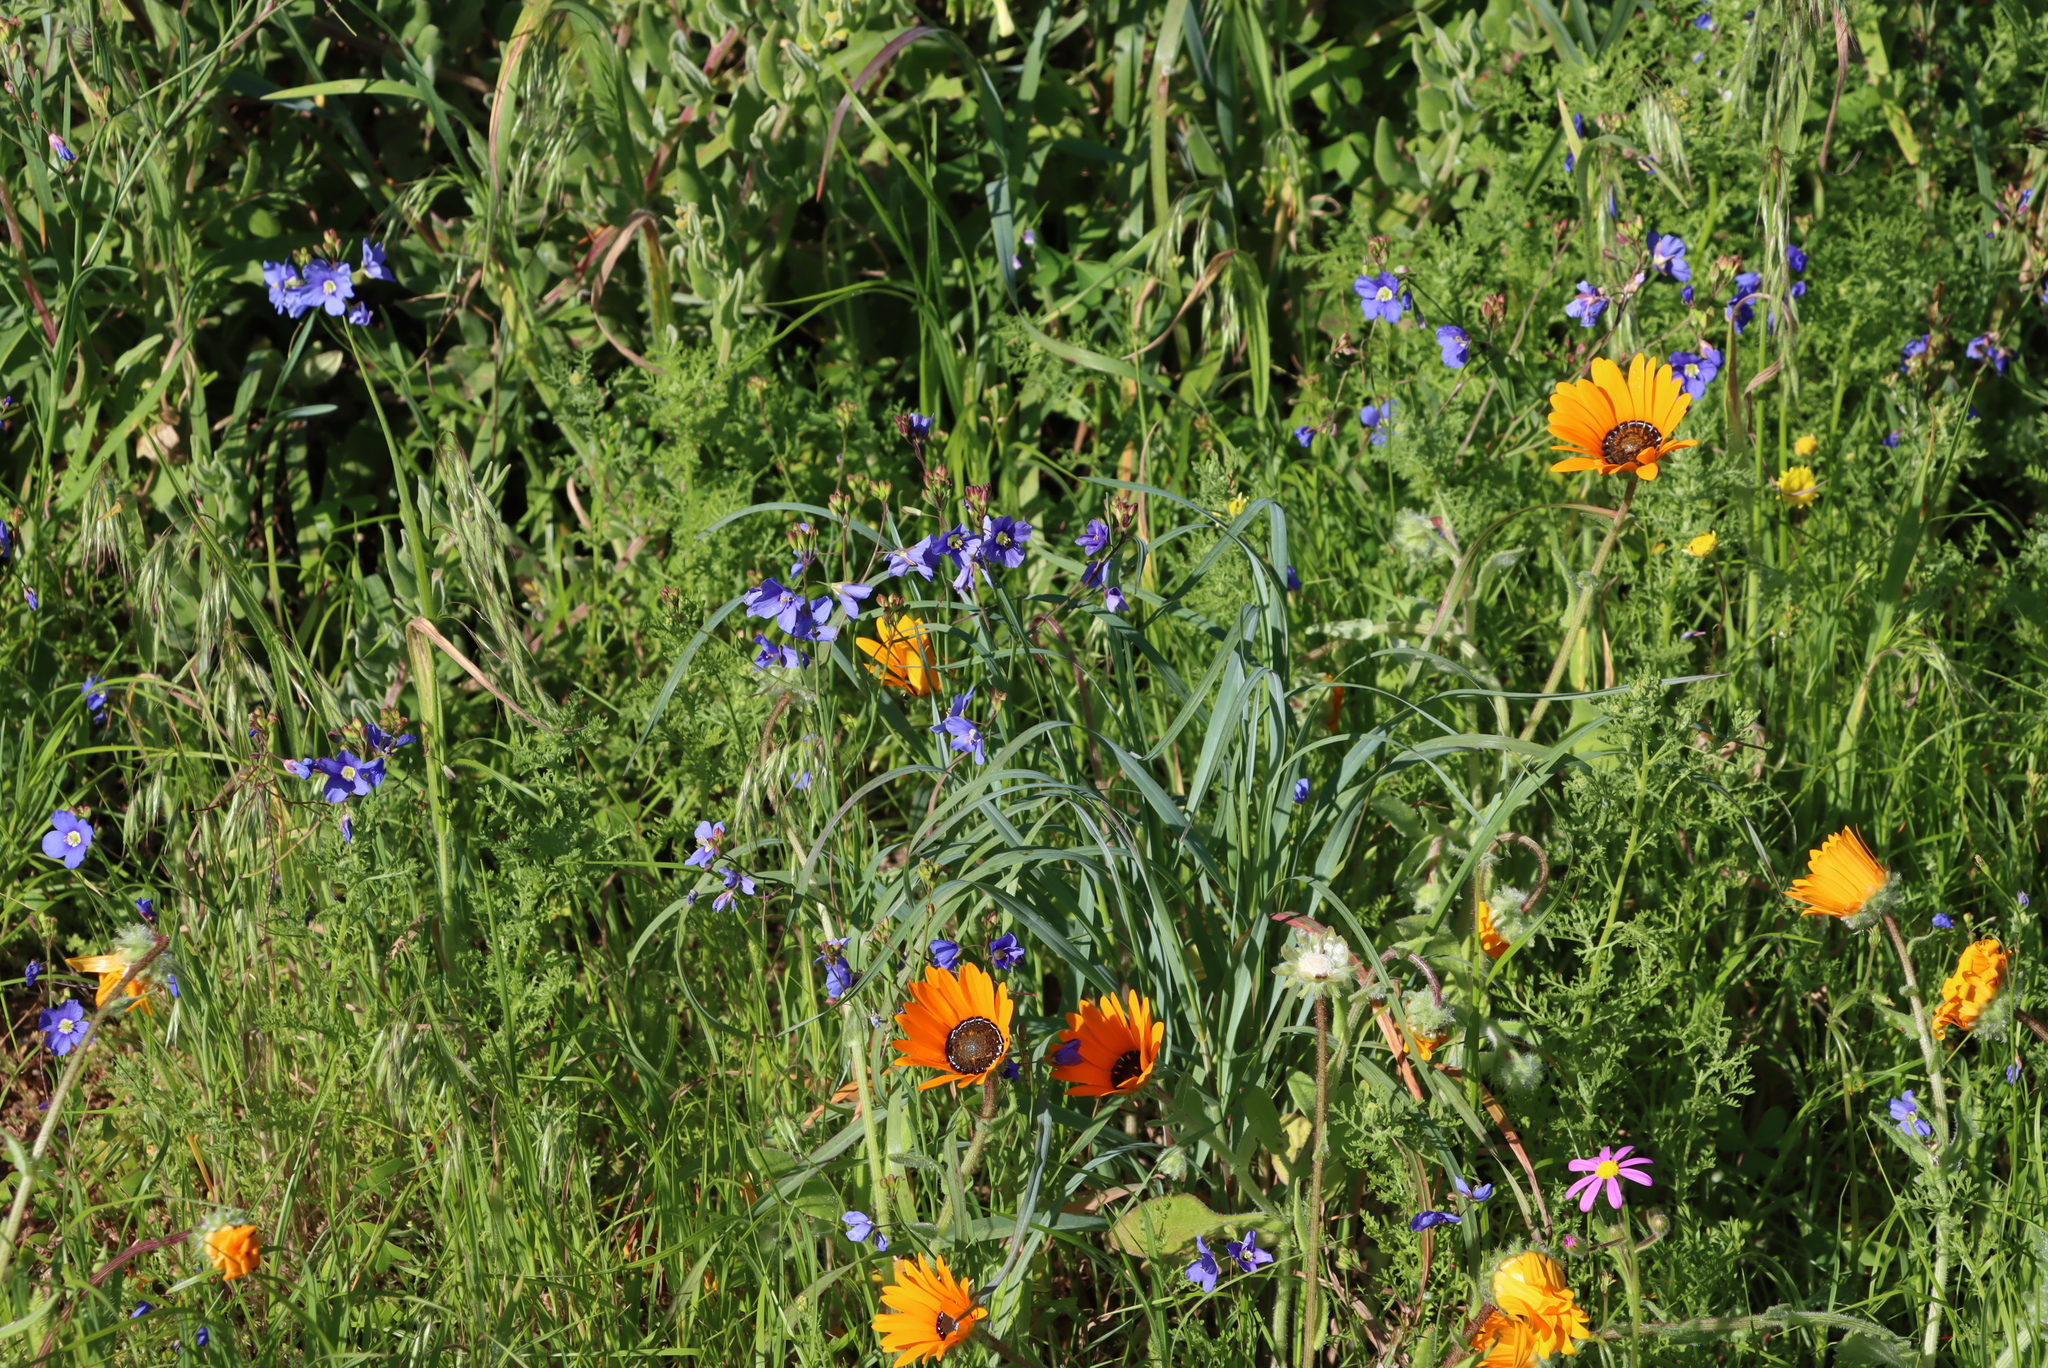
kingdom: Plantae
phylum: Tracheophyta
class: Magnoliopsida
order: Brassicales
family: Brassicaceae
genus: Heliophila
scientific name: Heliophila coronopifolia
